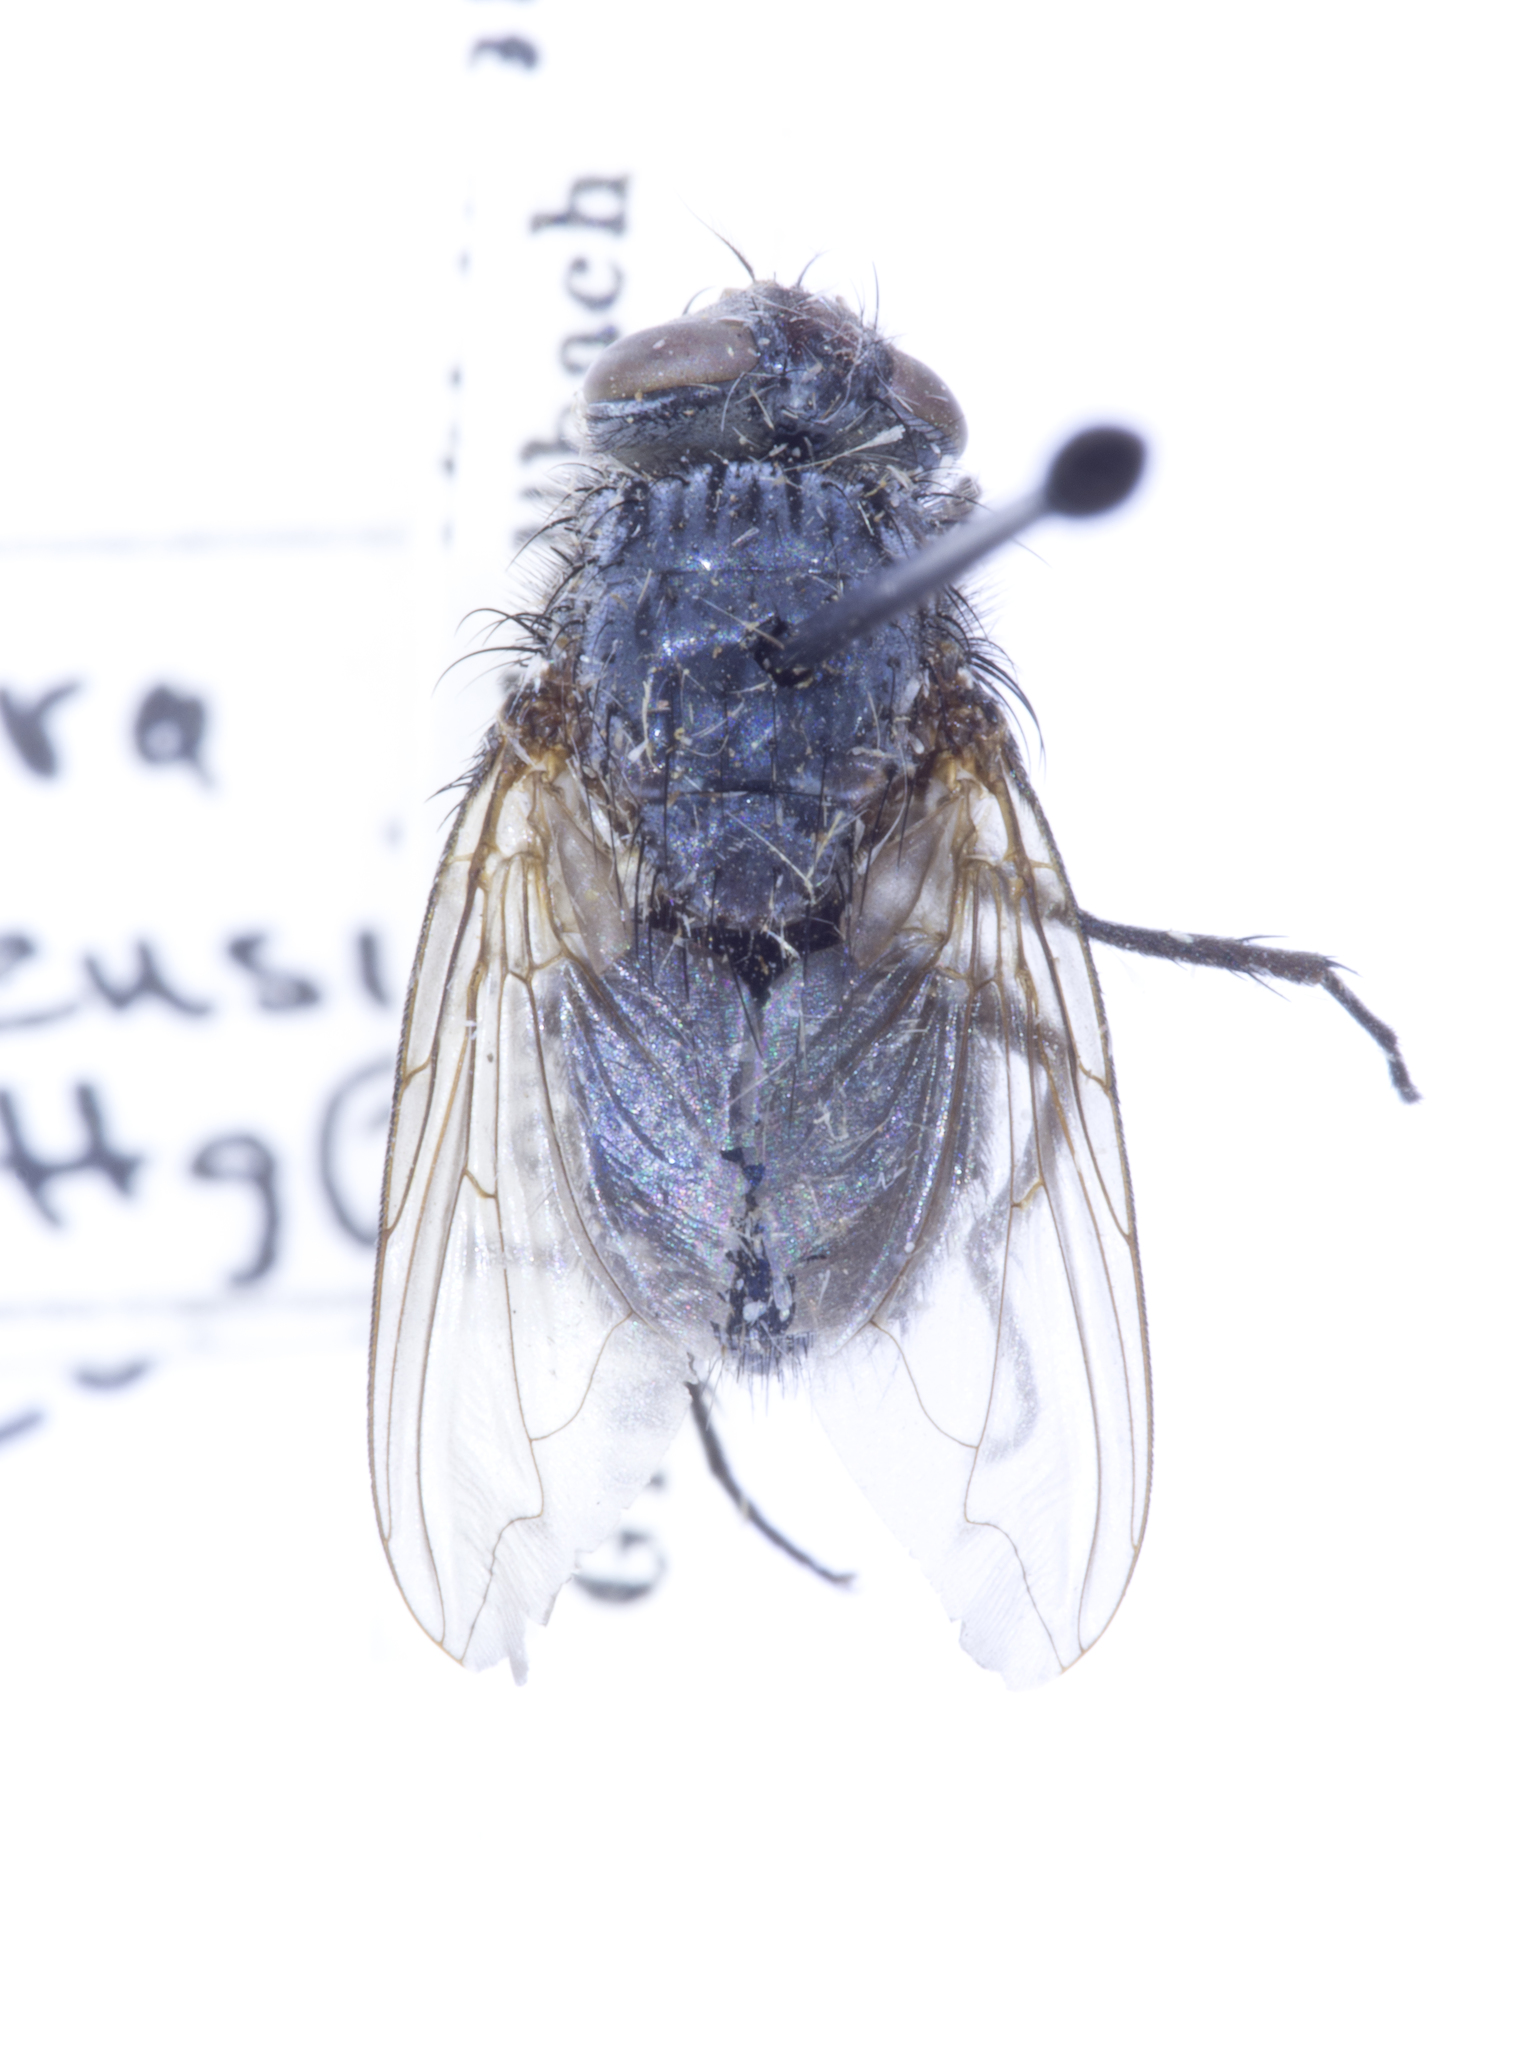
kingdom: Animalia
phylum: Arthropoda
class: Insecta
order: Diptera
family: Calliphoridae
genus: Calliphora
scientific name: Calliphora coloradensis
